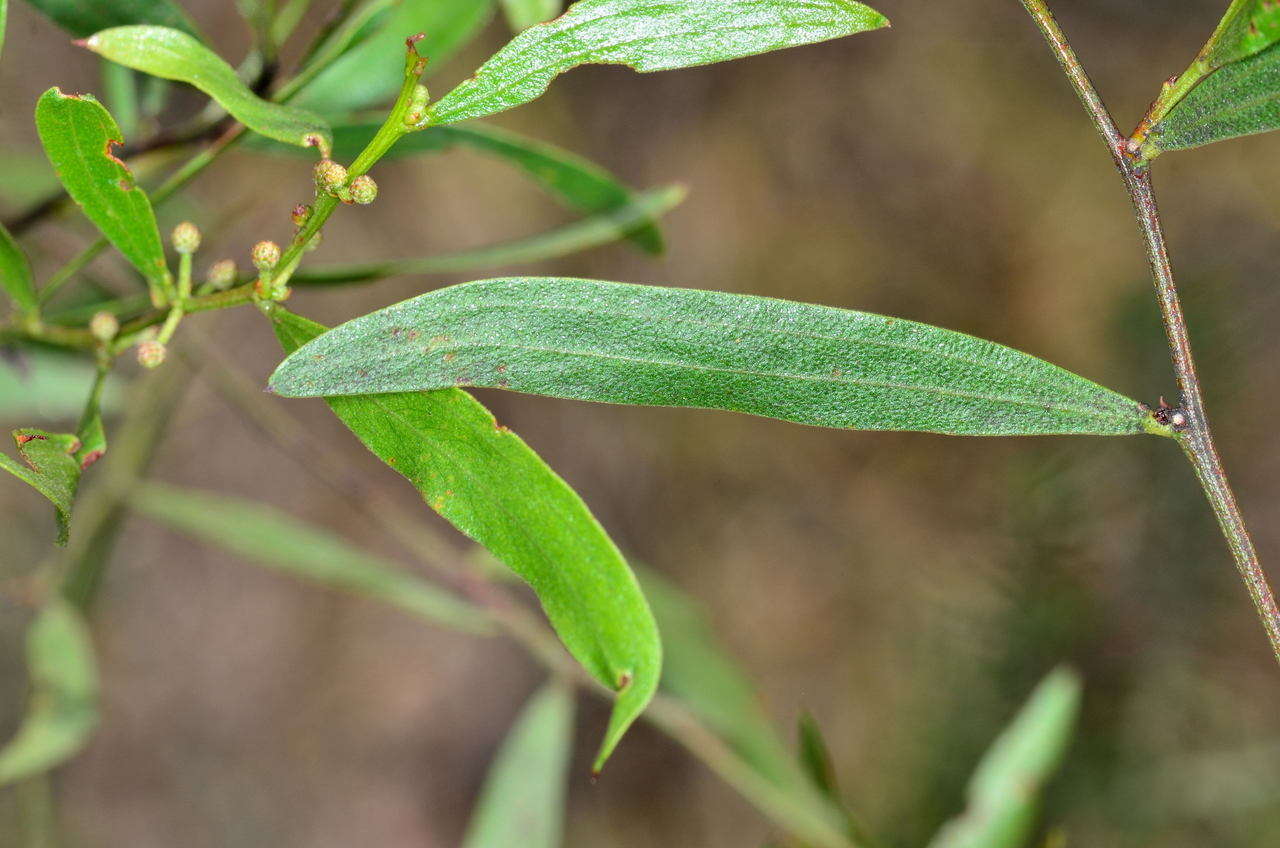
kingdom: Plantae
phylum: Tracheophyta
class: Magnoliopsida
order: Fabales
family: Fabaceae
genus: Acacia
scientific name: Acacia verniciflua
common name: Varnish wattle
